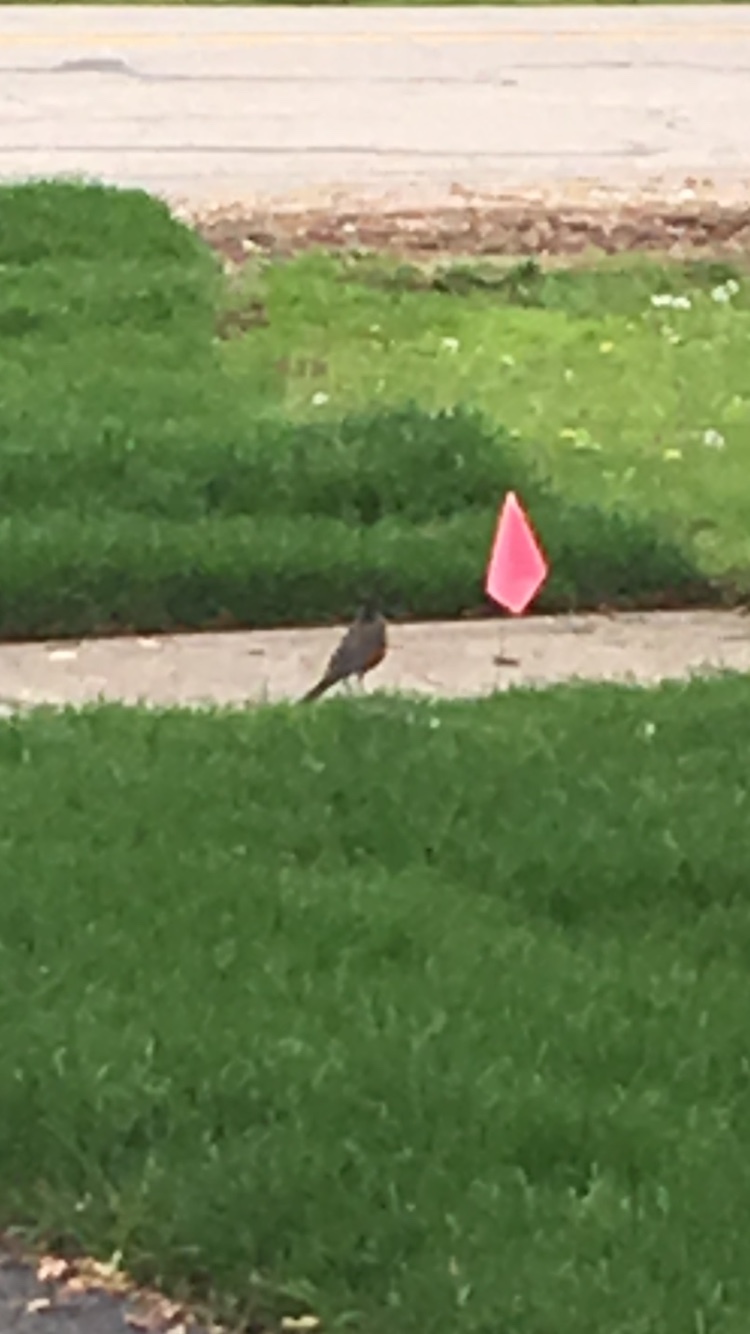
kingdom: Animalia
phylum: Chordata
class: Aves
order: Passeriformes
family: Turdidae
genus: Turdus
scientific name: Turdus migratorius
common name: American robin
